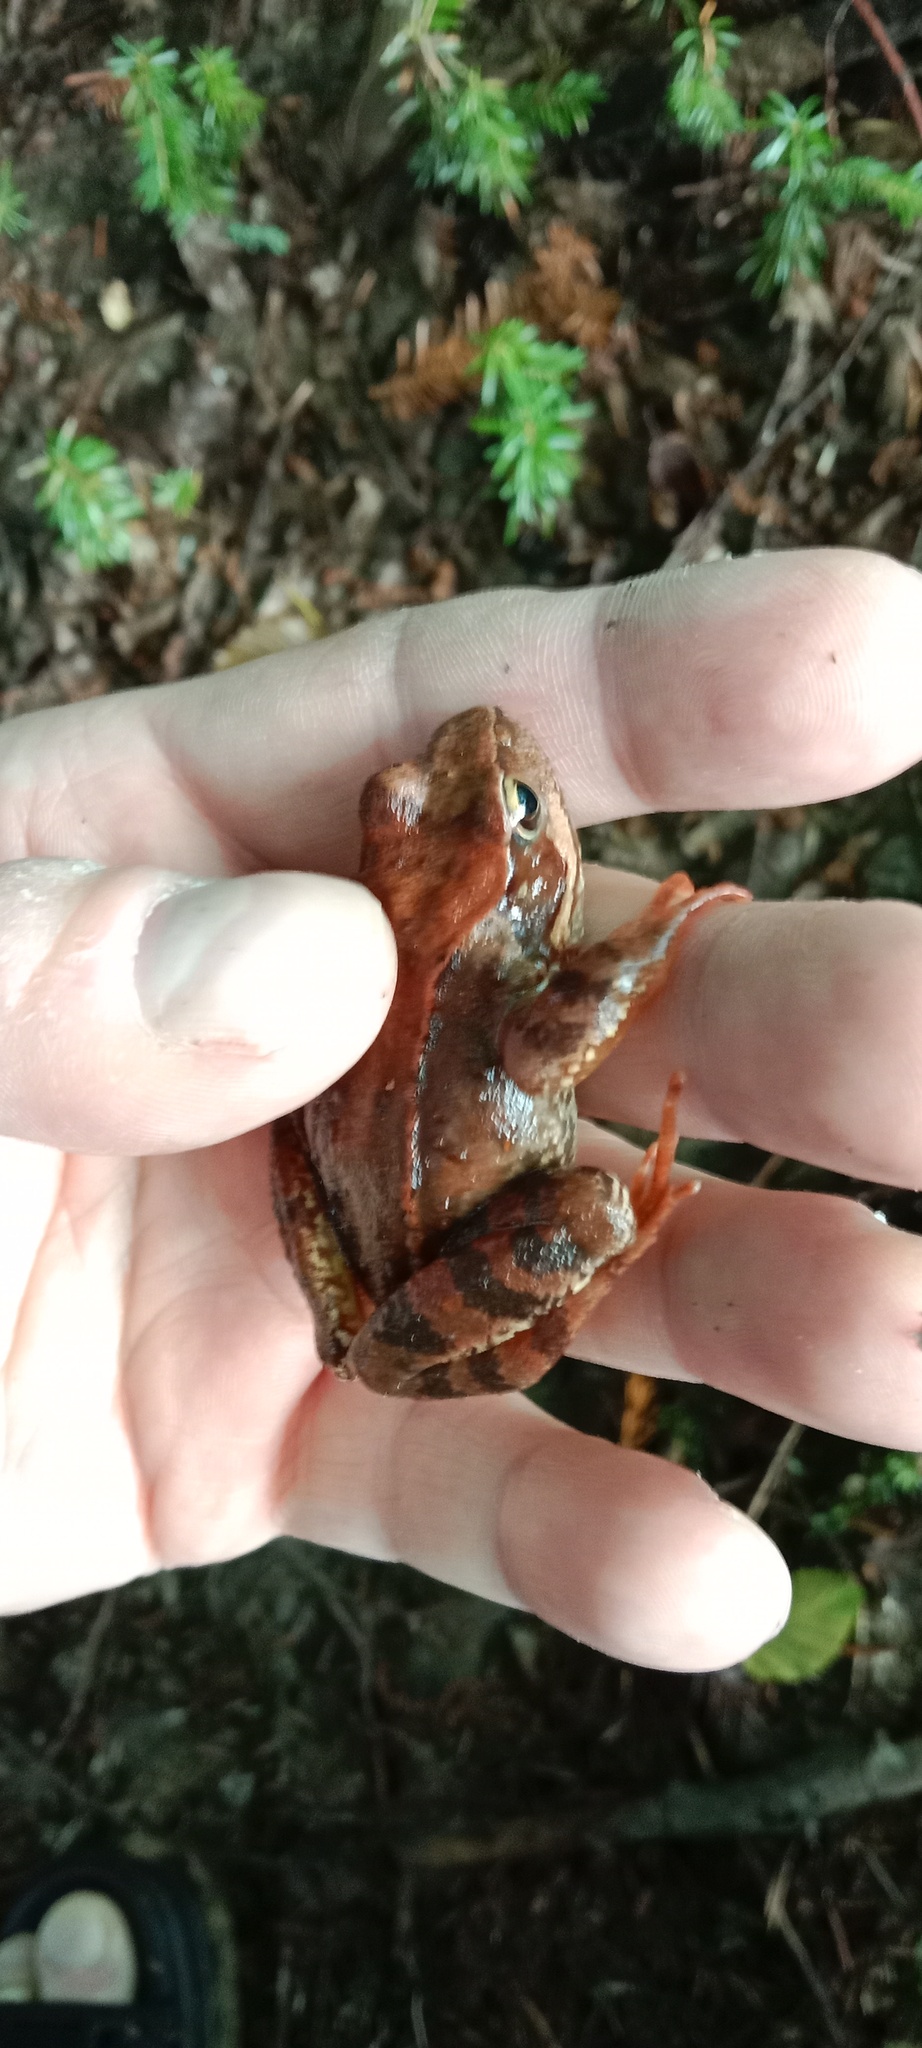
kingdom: Animalia
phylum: Chordata
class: Amphibia
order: Anura
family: Ranidae
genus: Rana
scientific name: Rana temporaria
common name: Common frog
